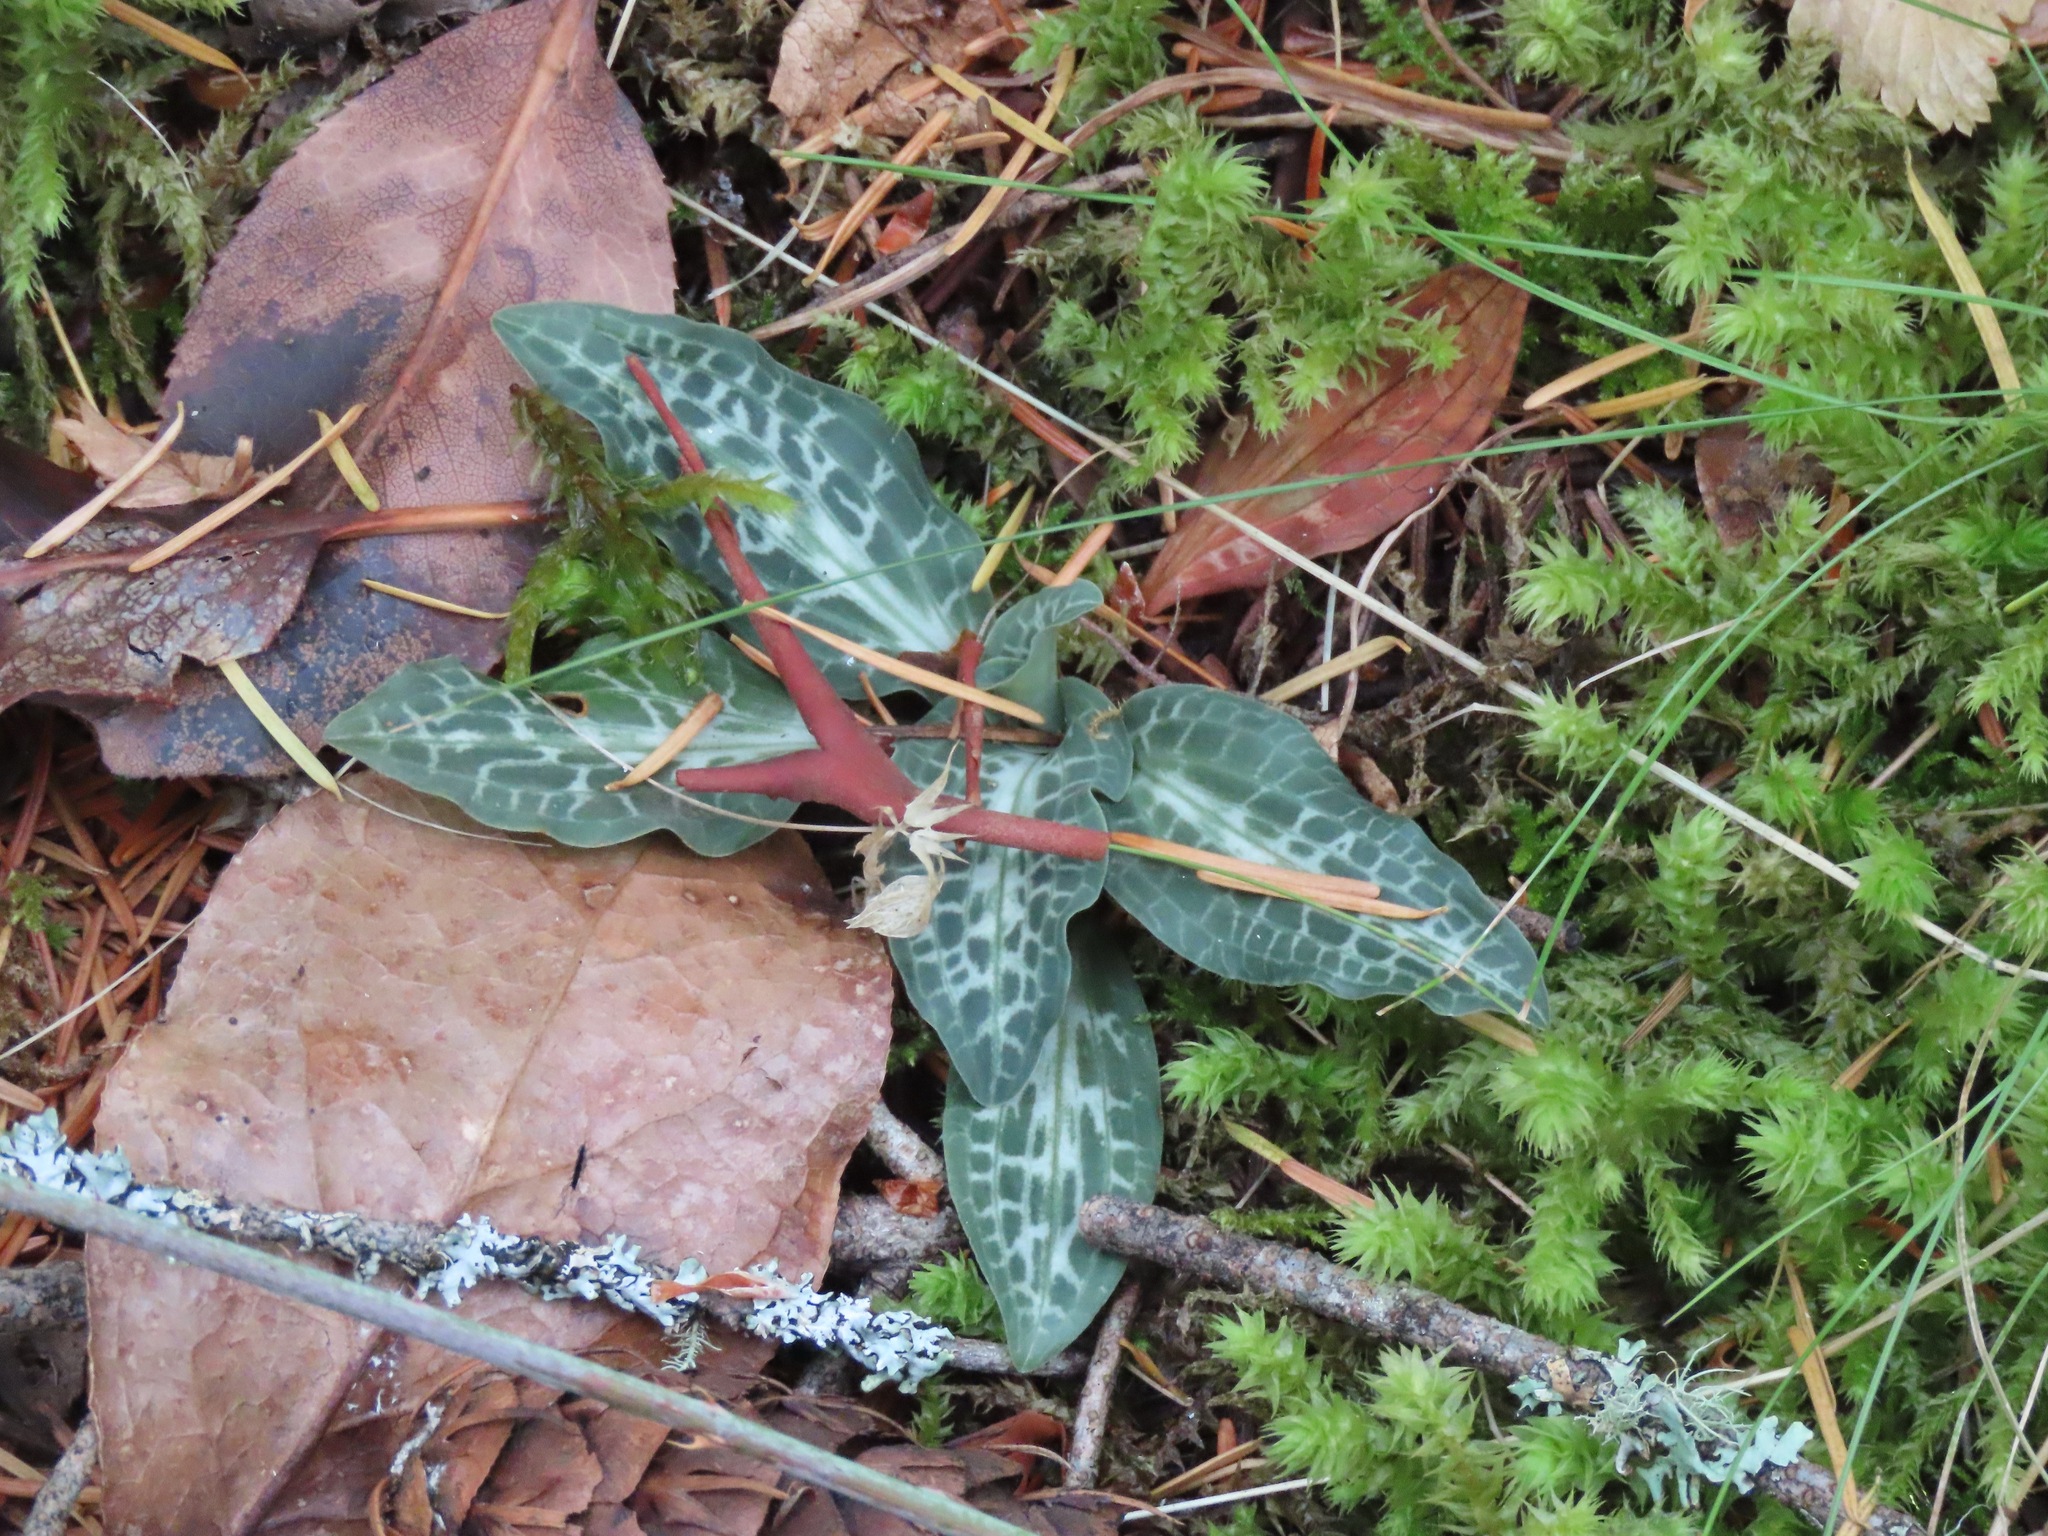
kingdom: Plantae
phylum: Tracheophyta
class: Liliopsida
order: Asparagales
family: Orchidaceae
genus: Goodyera
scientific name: Goodyera oblongifolia
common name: Giant rattlesnake-plantain
